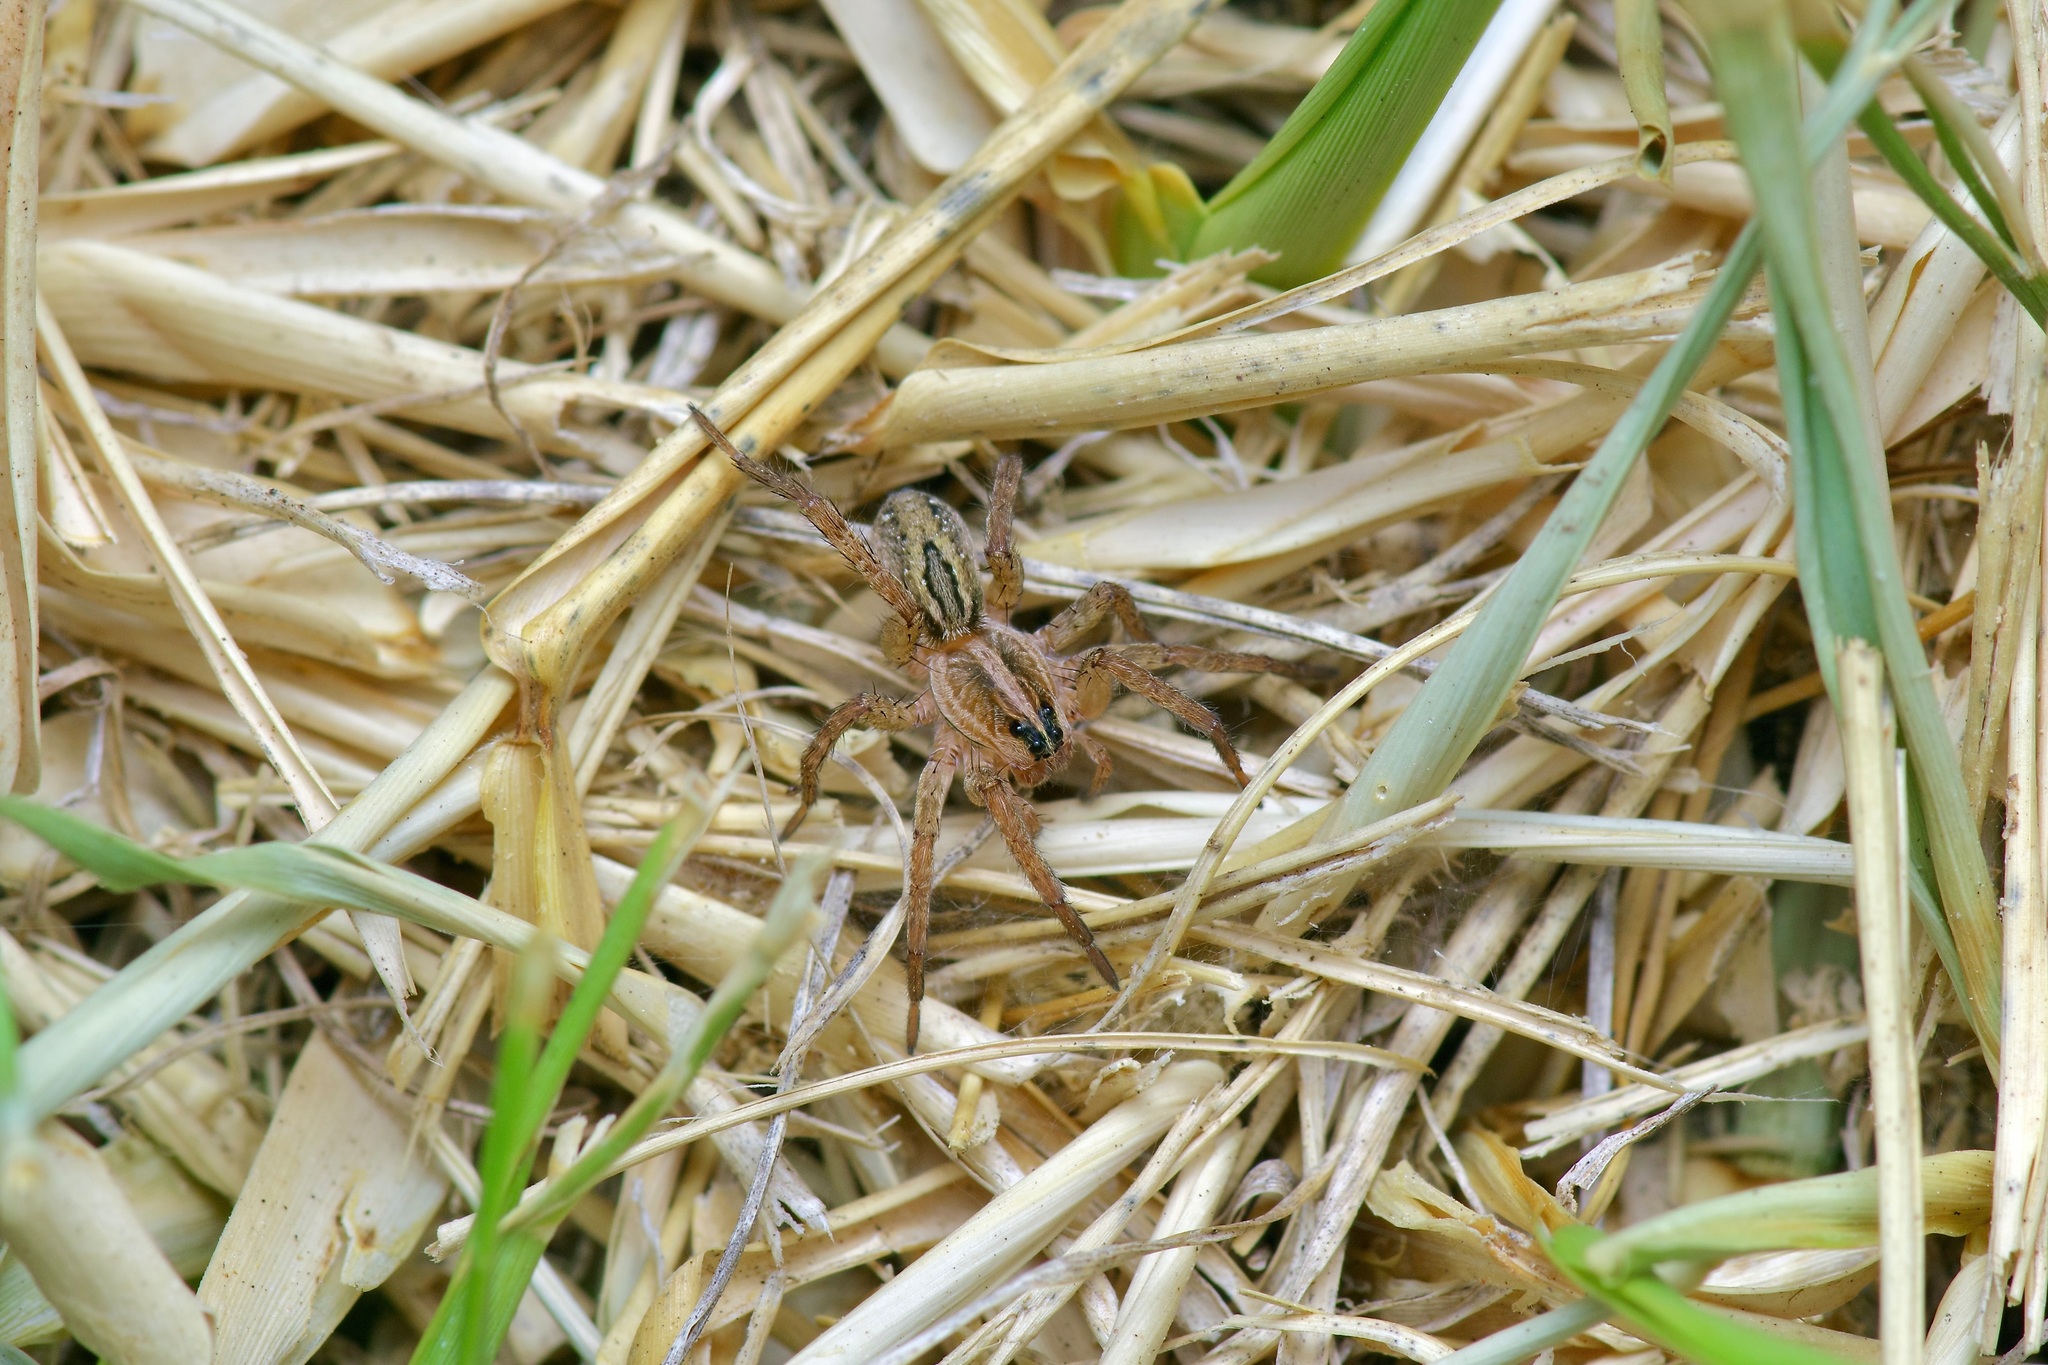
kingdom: Animalia
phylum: Arthropoda
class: Arachnida
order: Araneae
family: Lycosidae
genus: Tigrosa
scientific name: Tigrosa annexa
